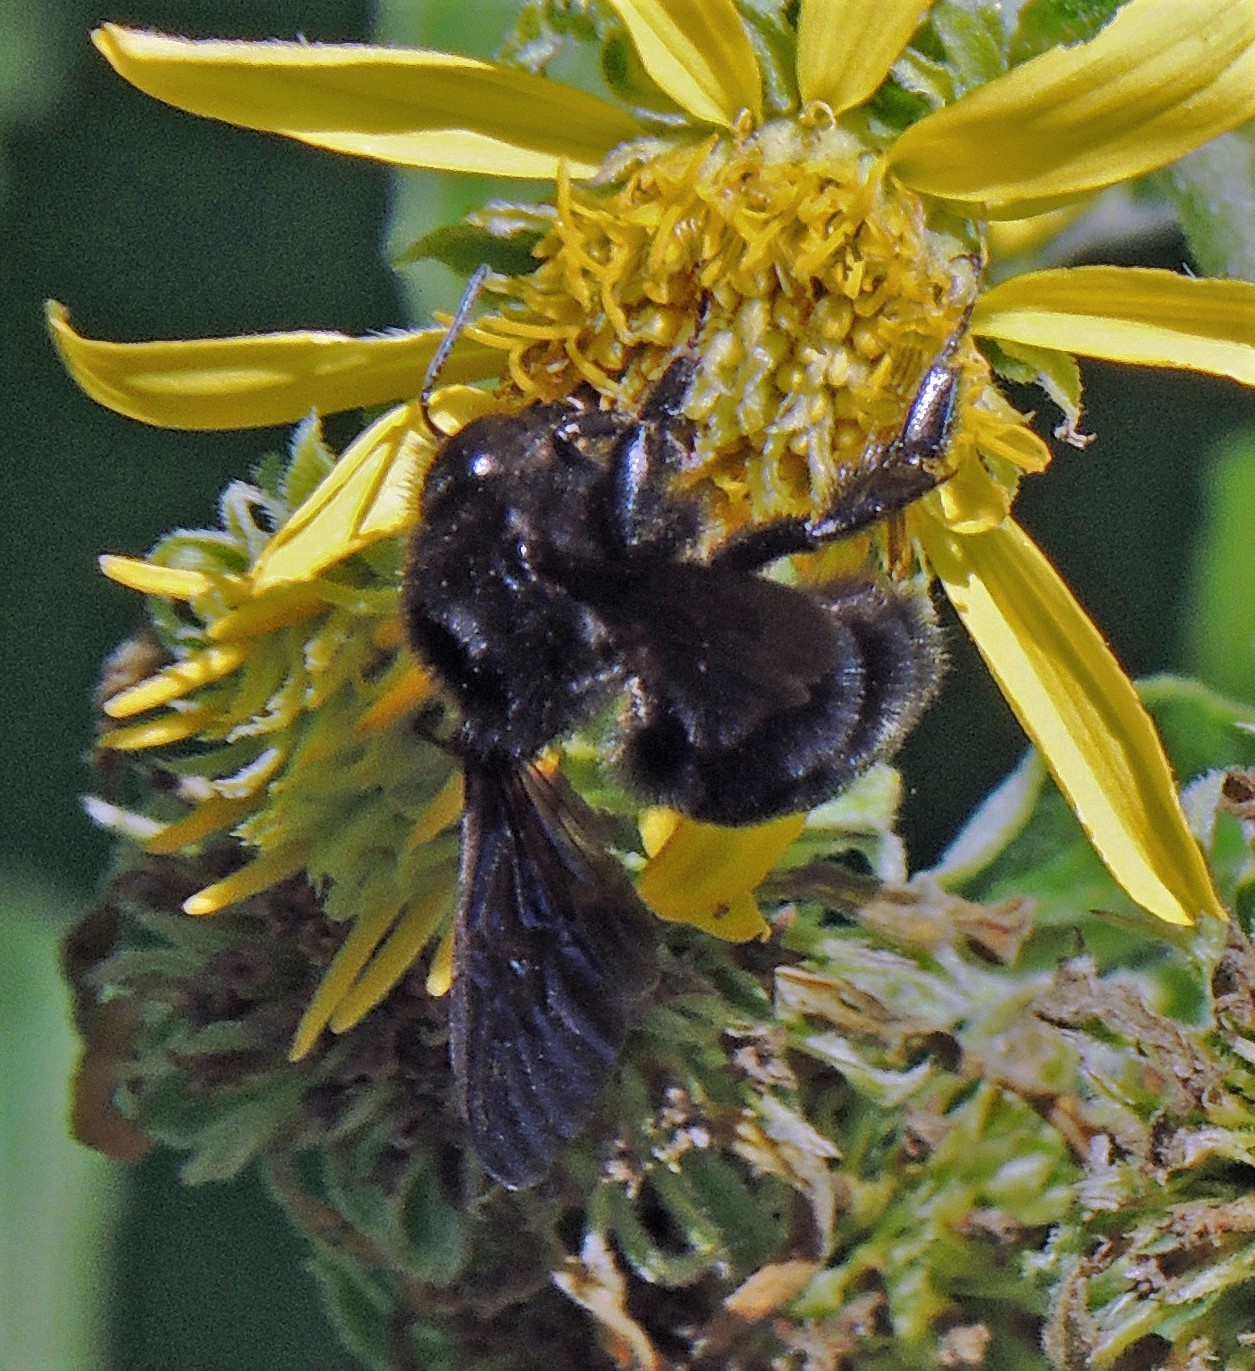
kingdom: Animalia
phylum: Arthropoda
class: Insecta
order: Hymenoptera
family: Apidae
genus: Bombus
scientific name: Bombus pauloensis
